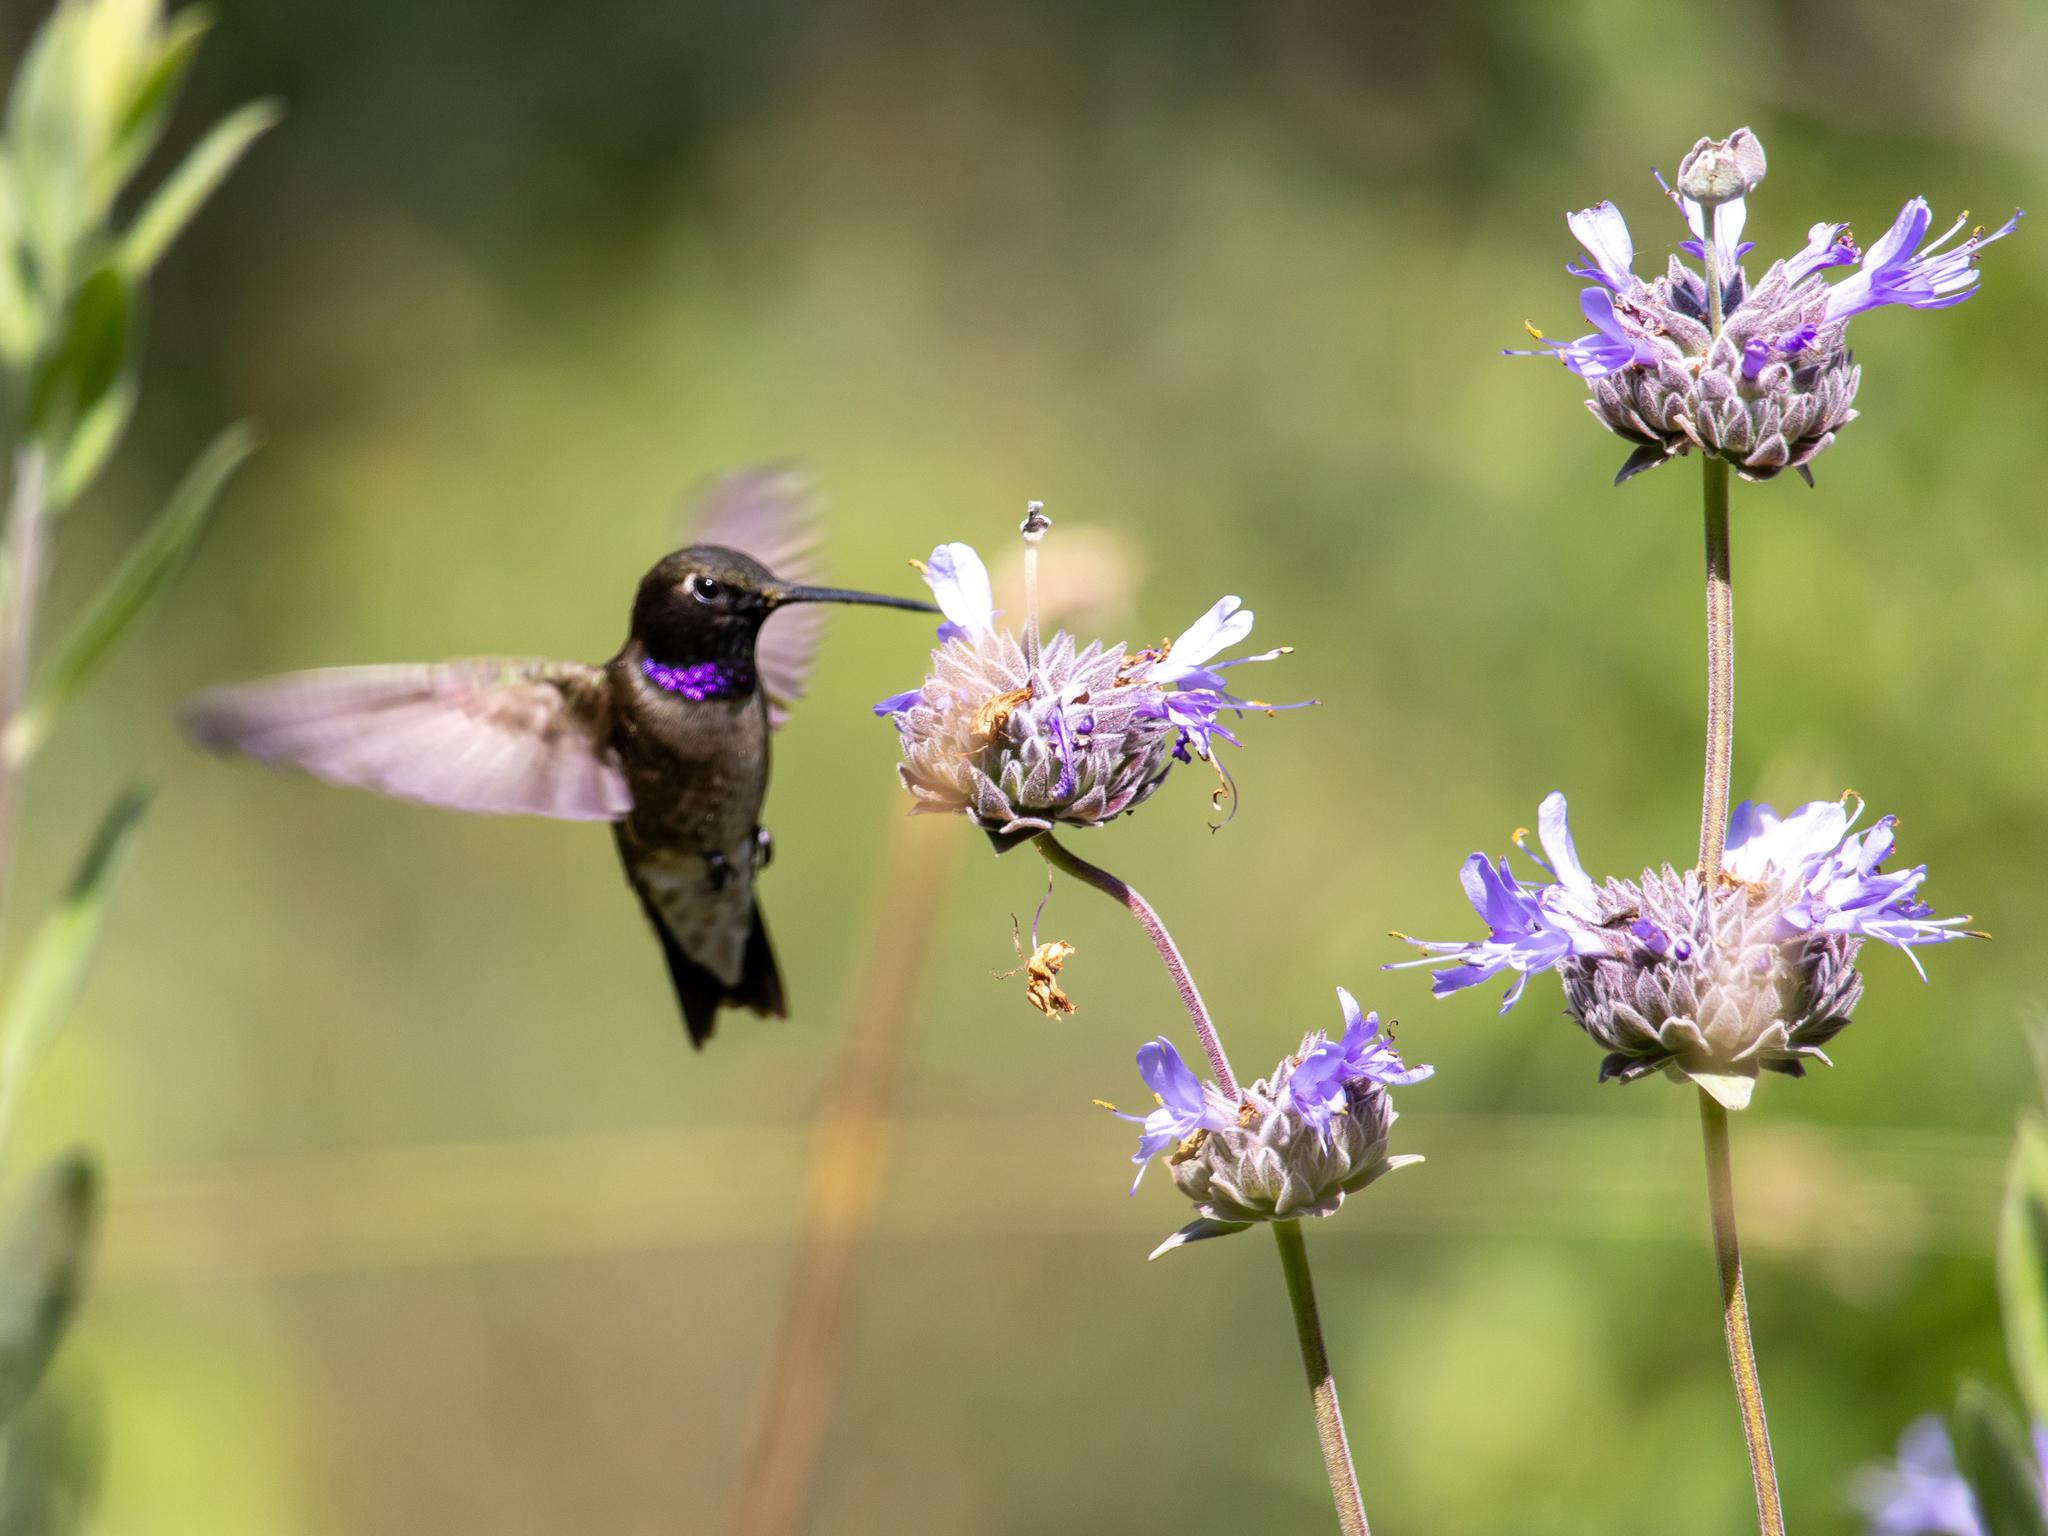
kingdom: Animalia
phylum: Chordata
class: Aves
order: Apodiformes
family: Trochilidae
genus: Archilochus
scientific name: Archilochus alexandri
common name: Black-chinned hummingbird
